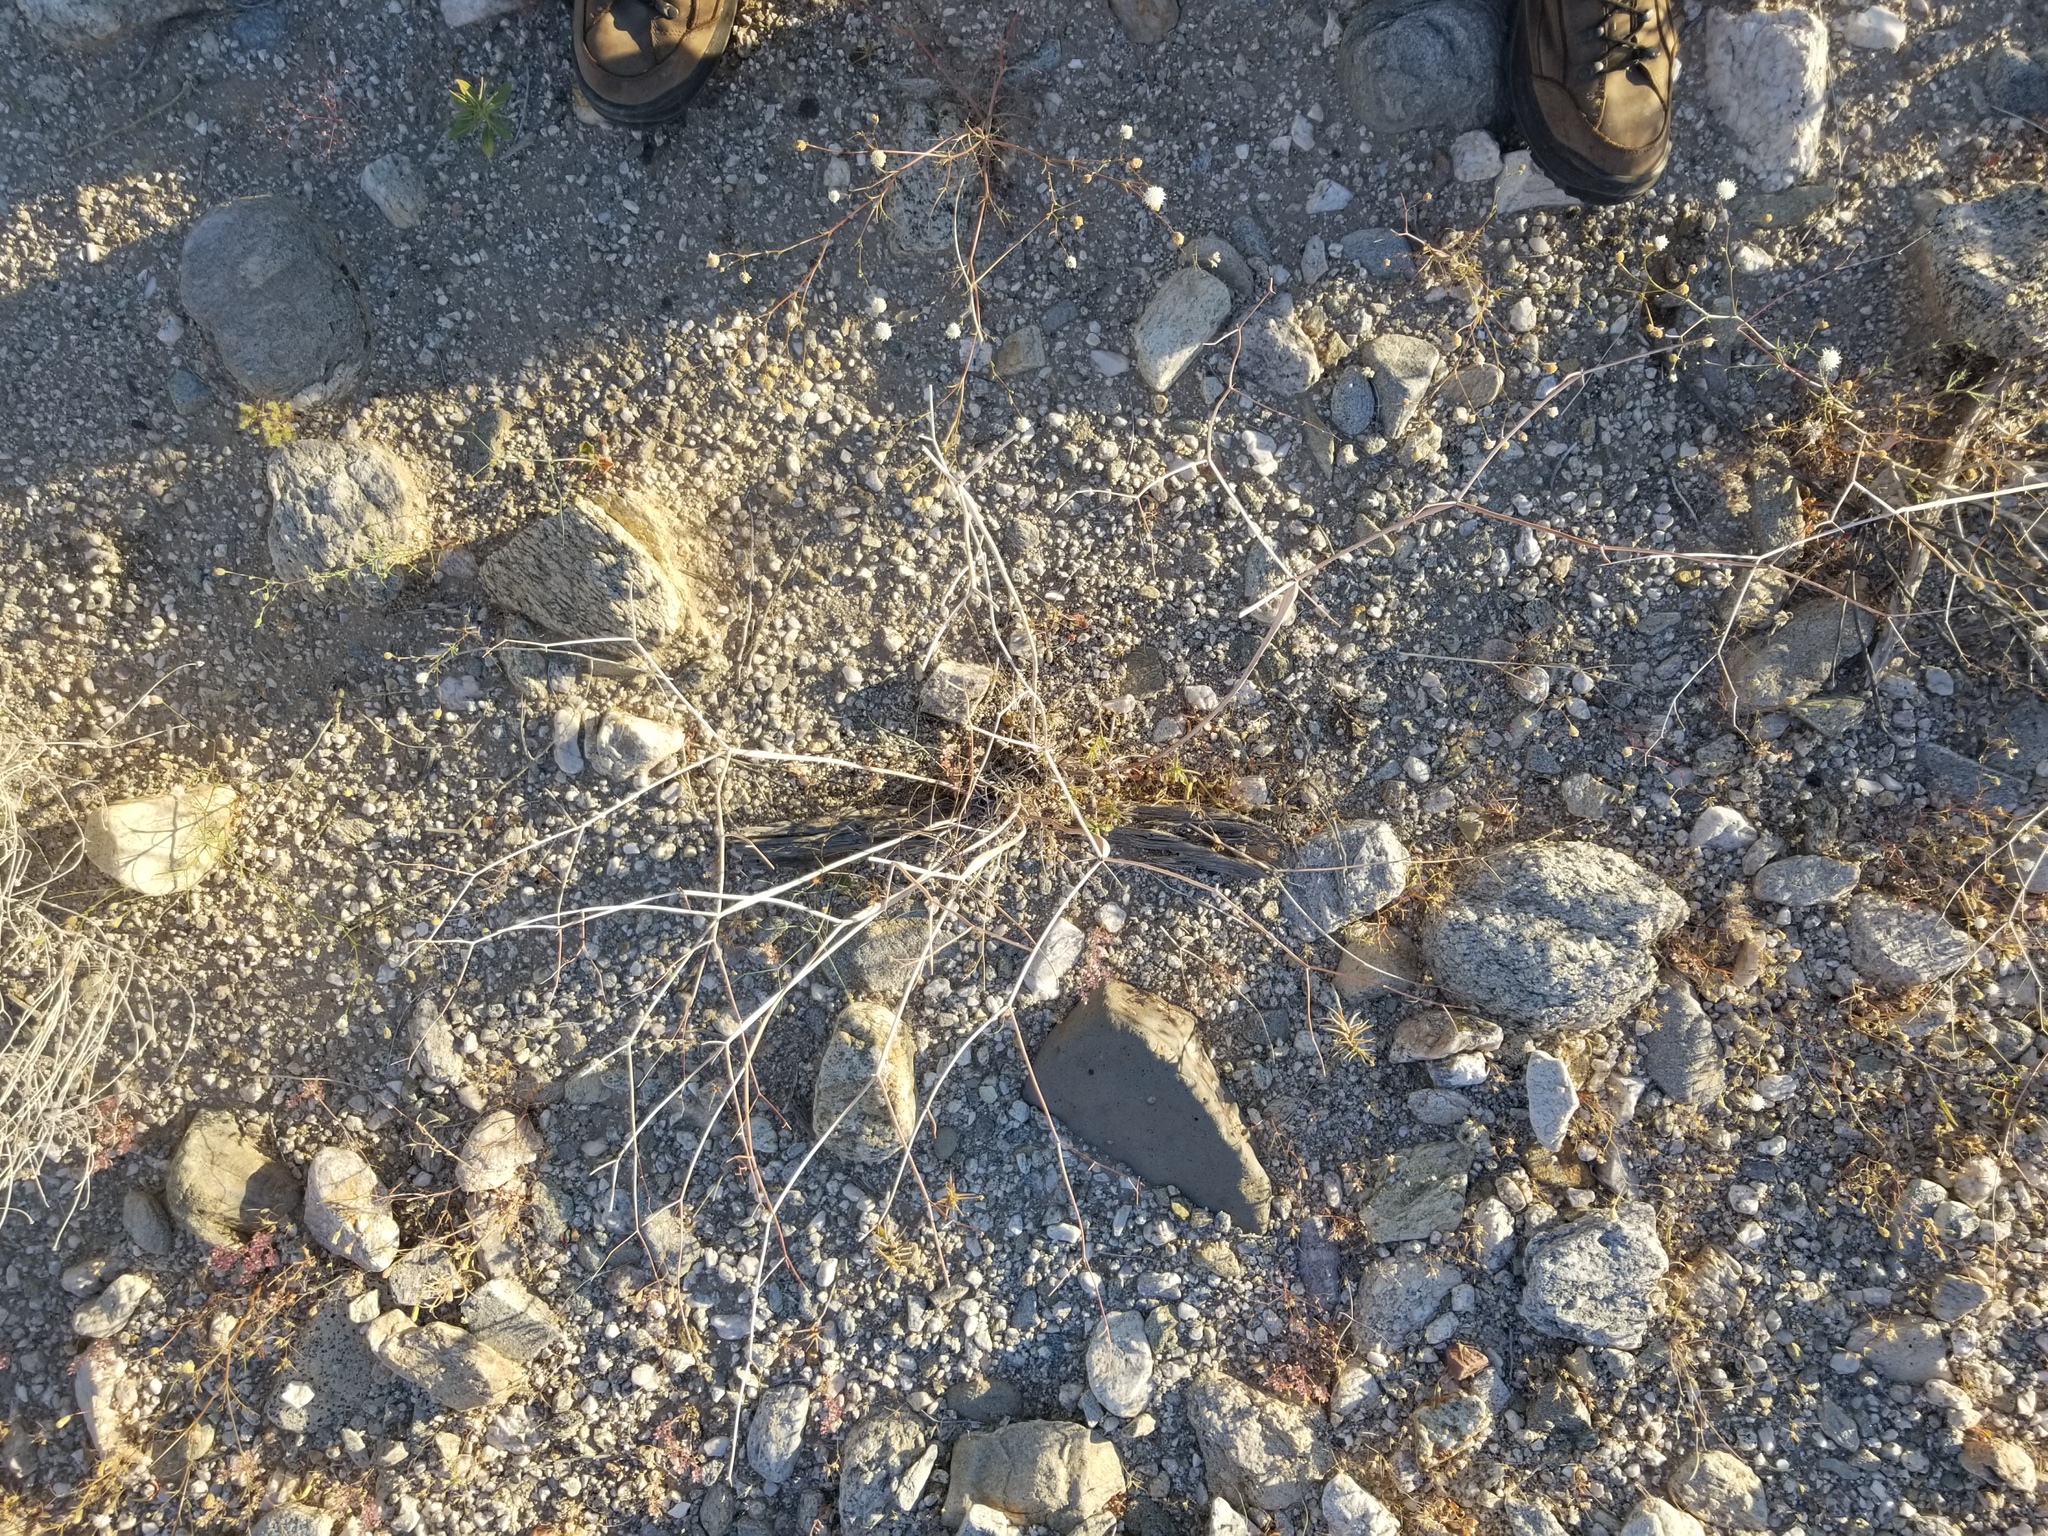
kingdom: Plantae
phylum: Tracheophyta
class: Magnoliopsida
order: Caryophyllales
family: Polygonaceae
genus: Eriogonum
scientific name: Eriogonum inflatum
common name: Desert trumpet
